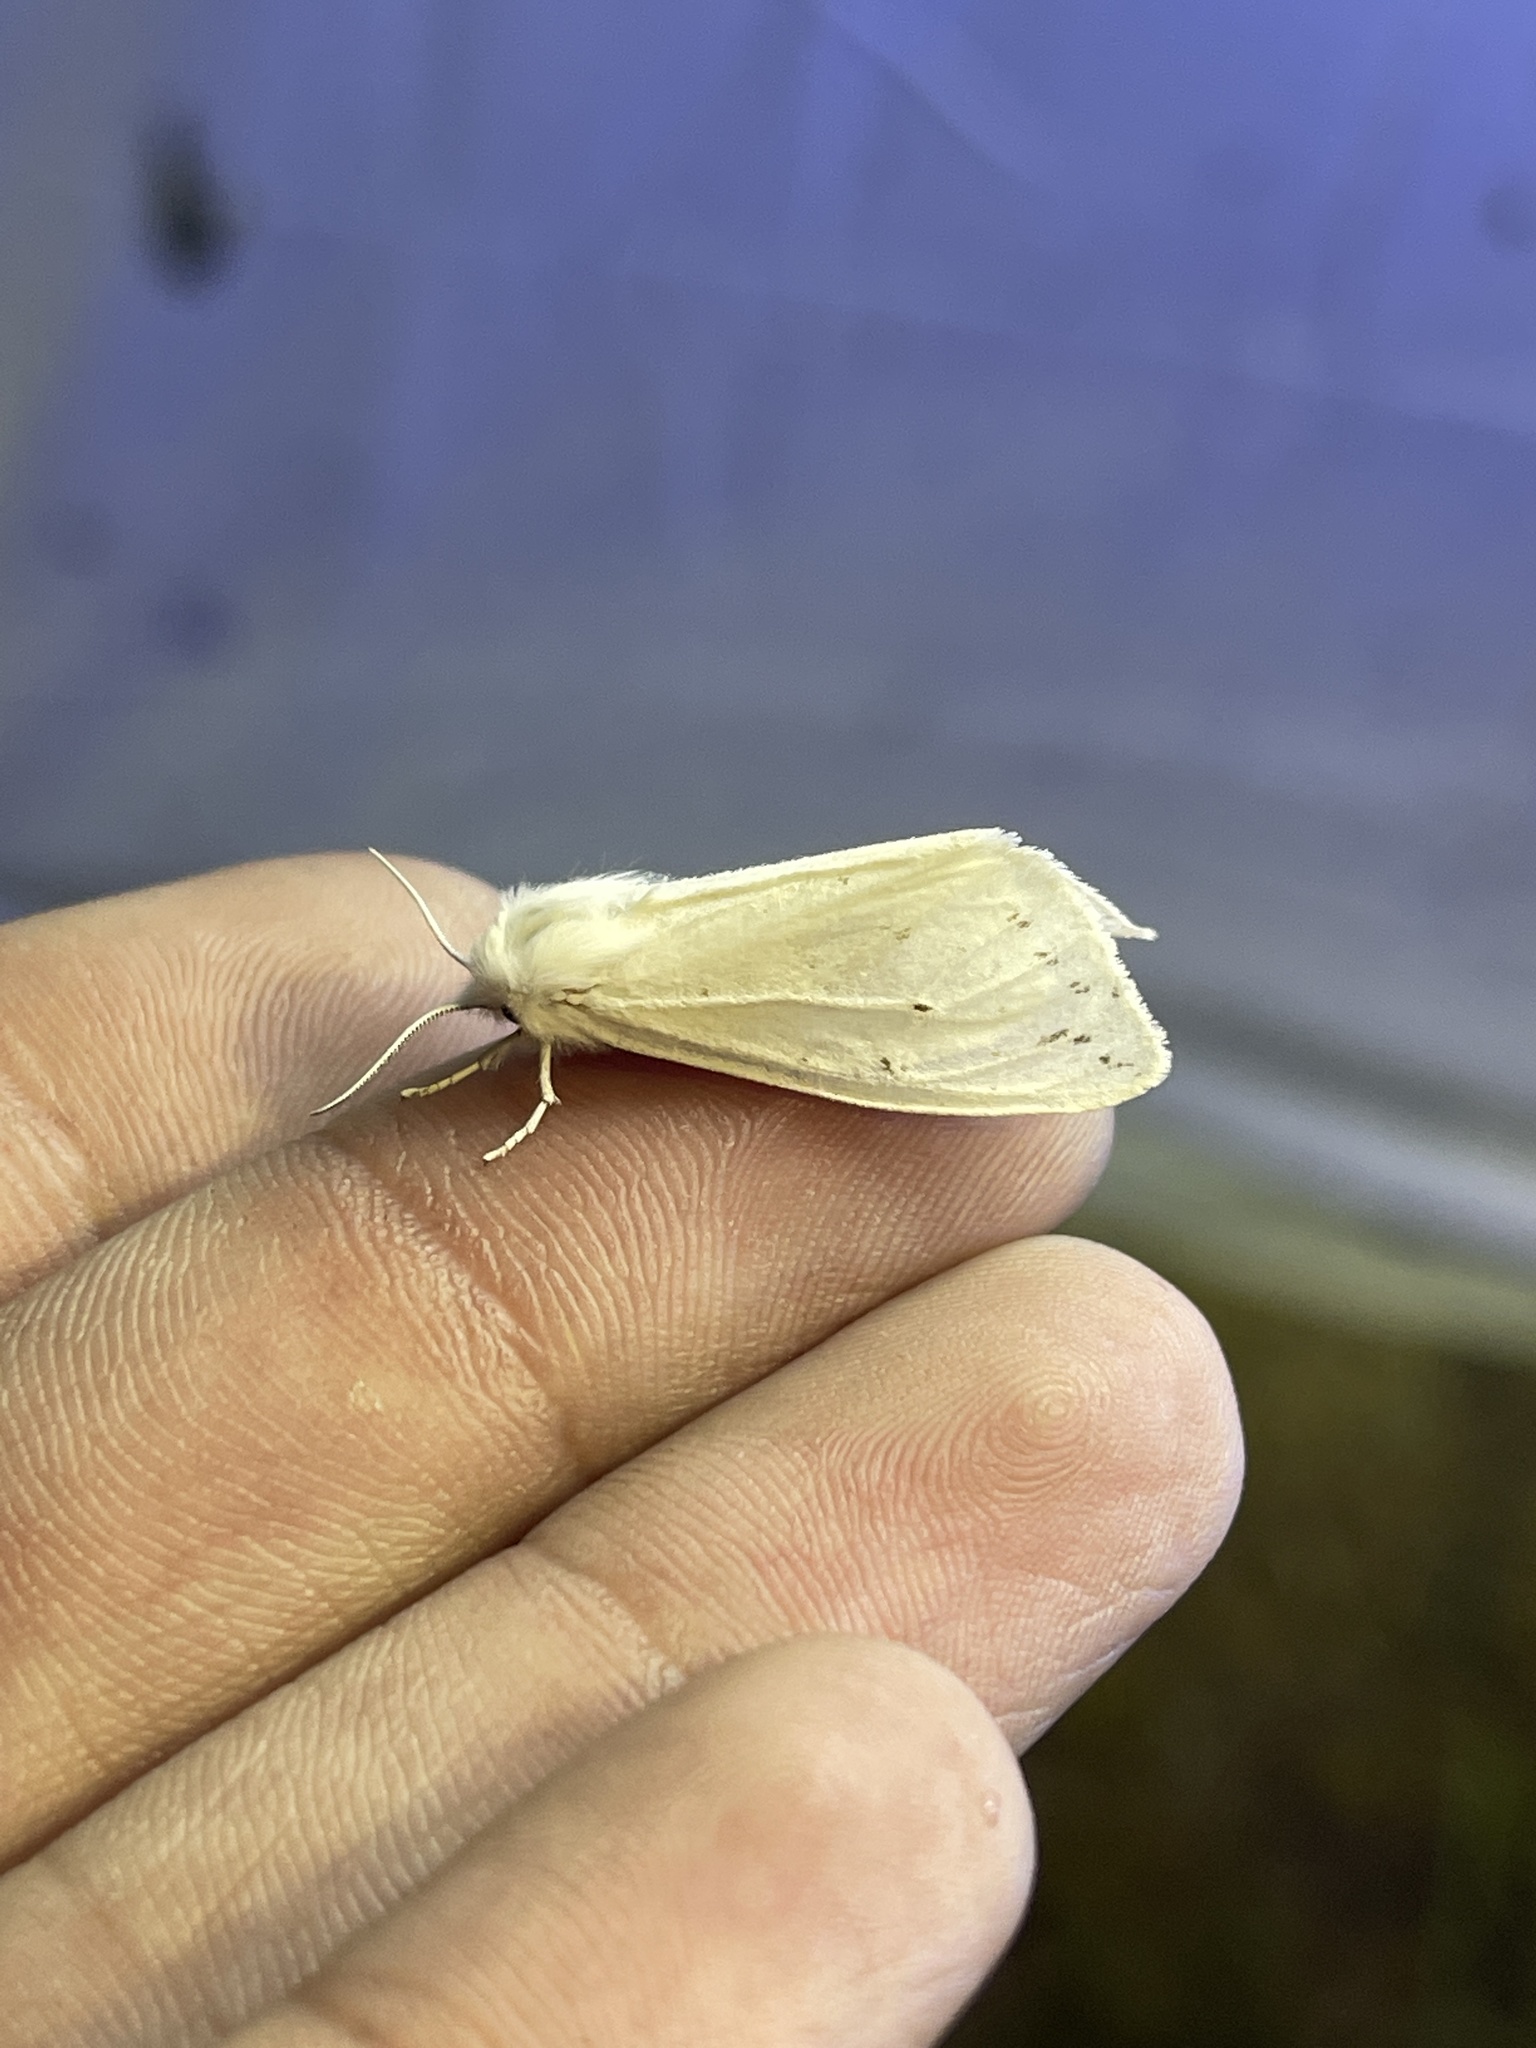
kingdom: Animalia
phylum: Arthropoda
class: Insecta
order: Lepidoptera
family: Erebidae
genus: Spilosoma
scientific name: Spilosoma congrua
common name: Agreeable tiger moth
